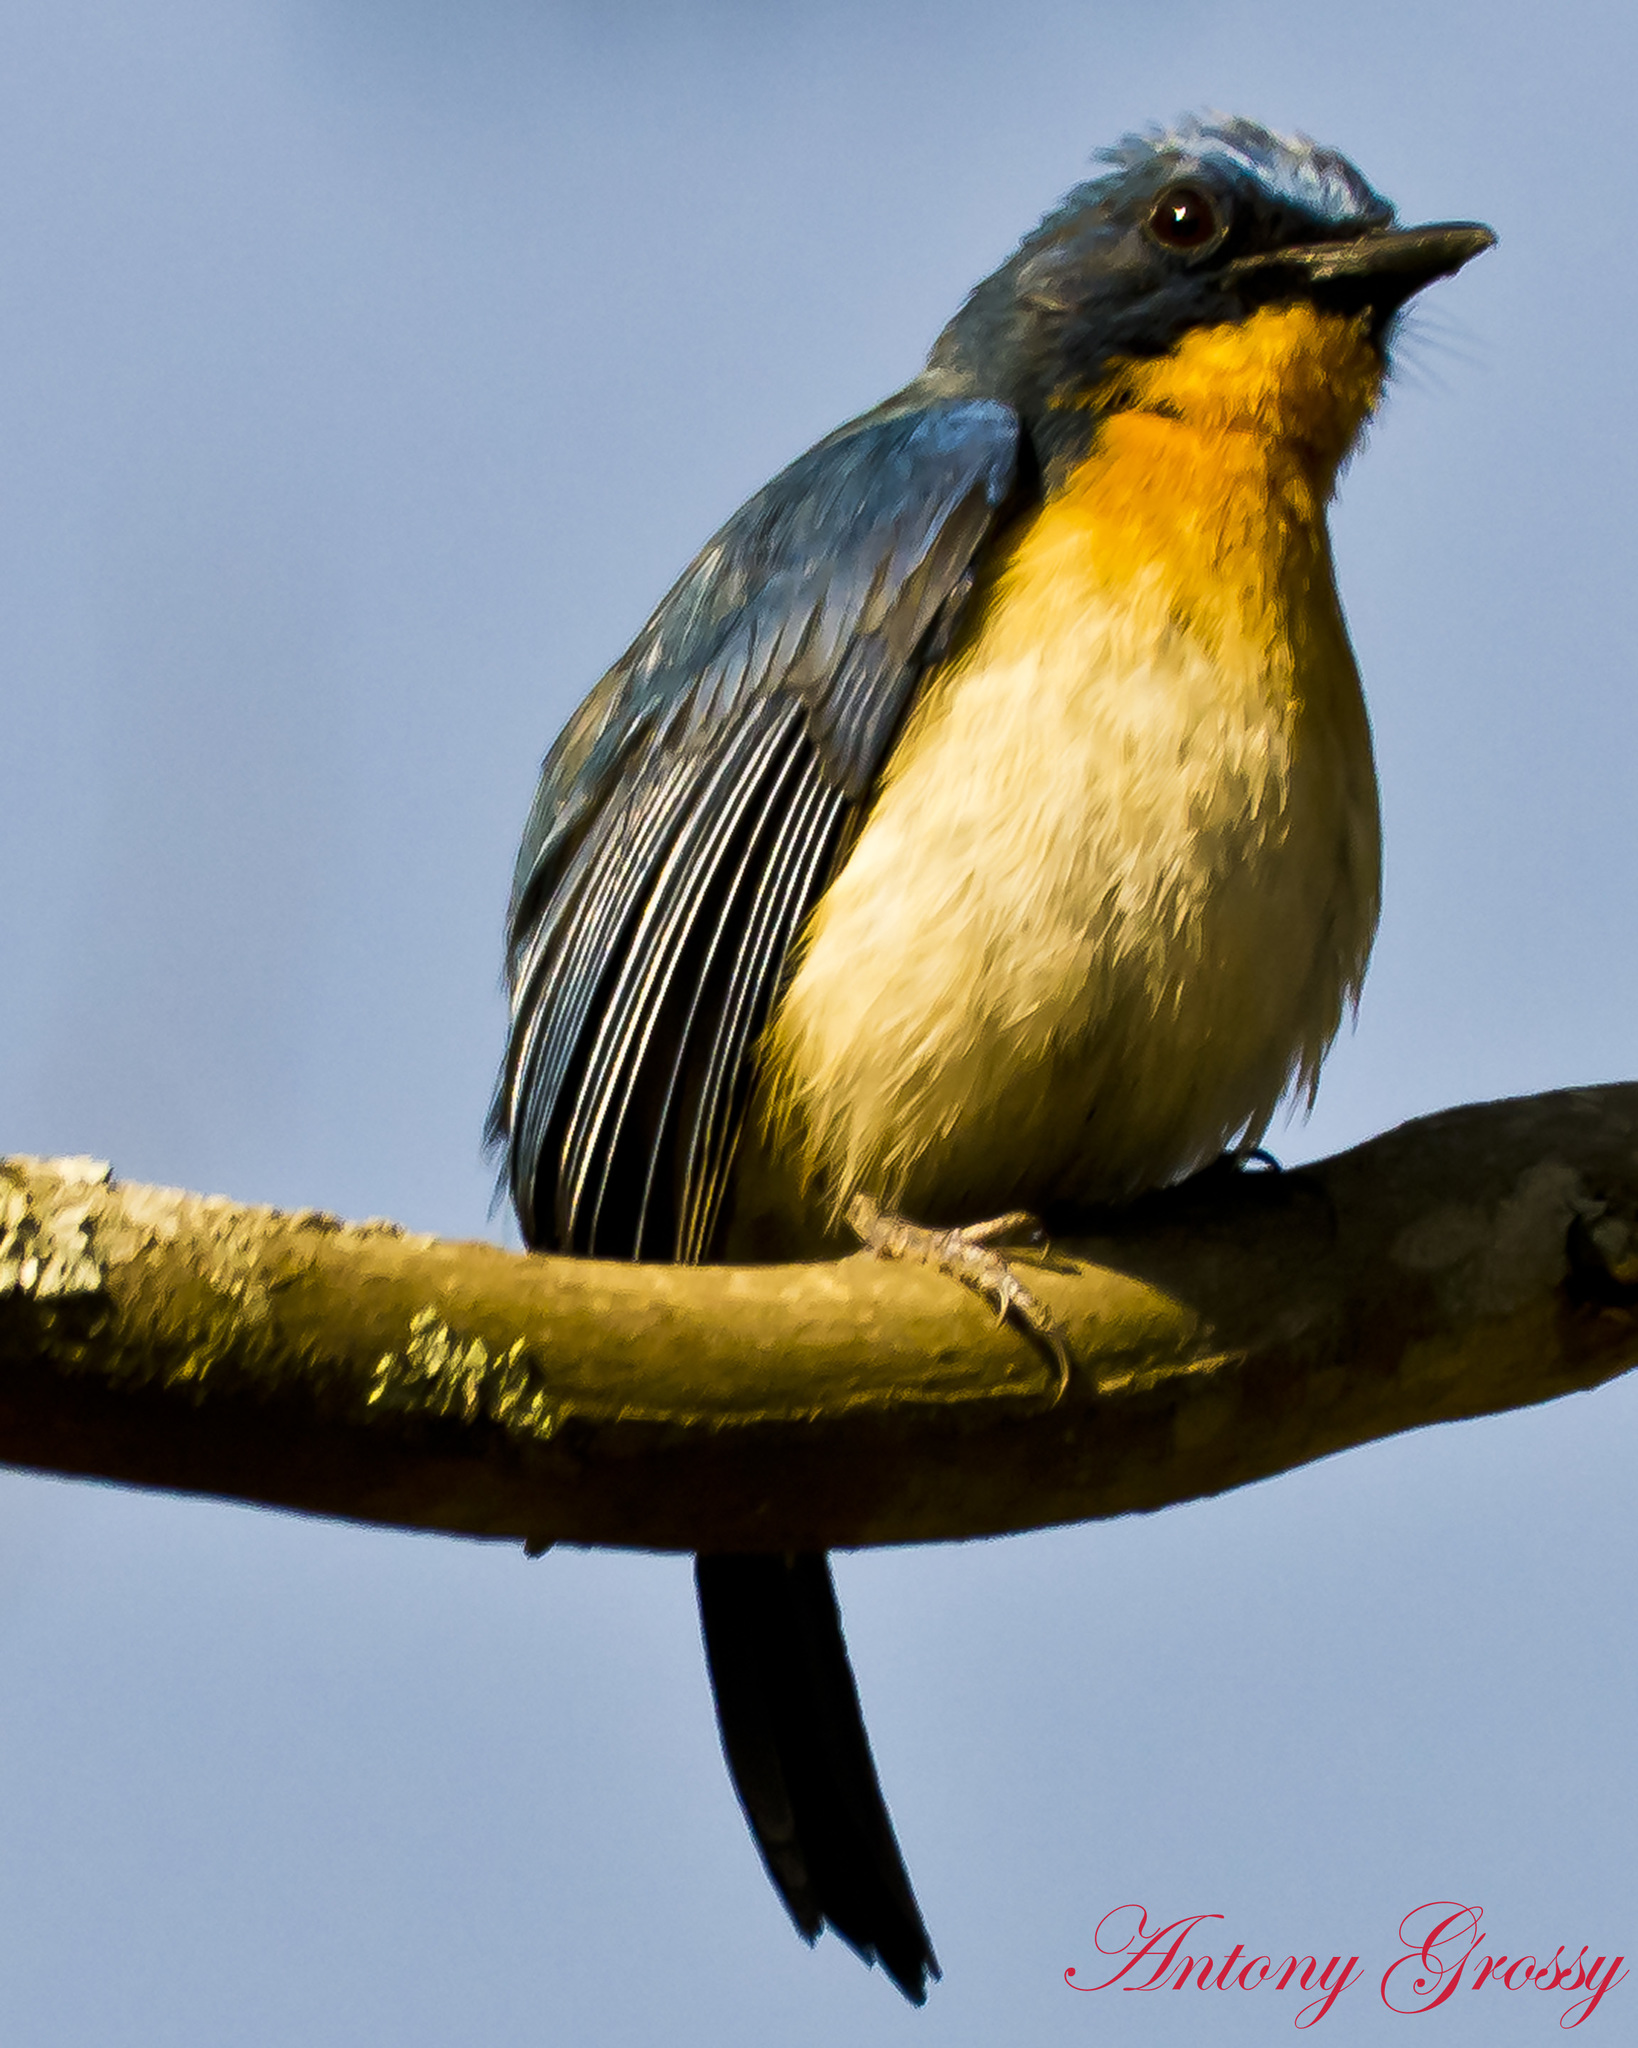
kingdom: Animalia
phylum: Chordata
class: Aves
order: Passeriformes
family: Muscicapidae
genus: Cyornis
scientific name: Cyornis tickelliae
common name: Tickell's blue flycatcher
